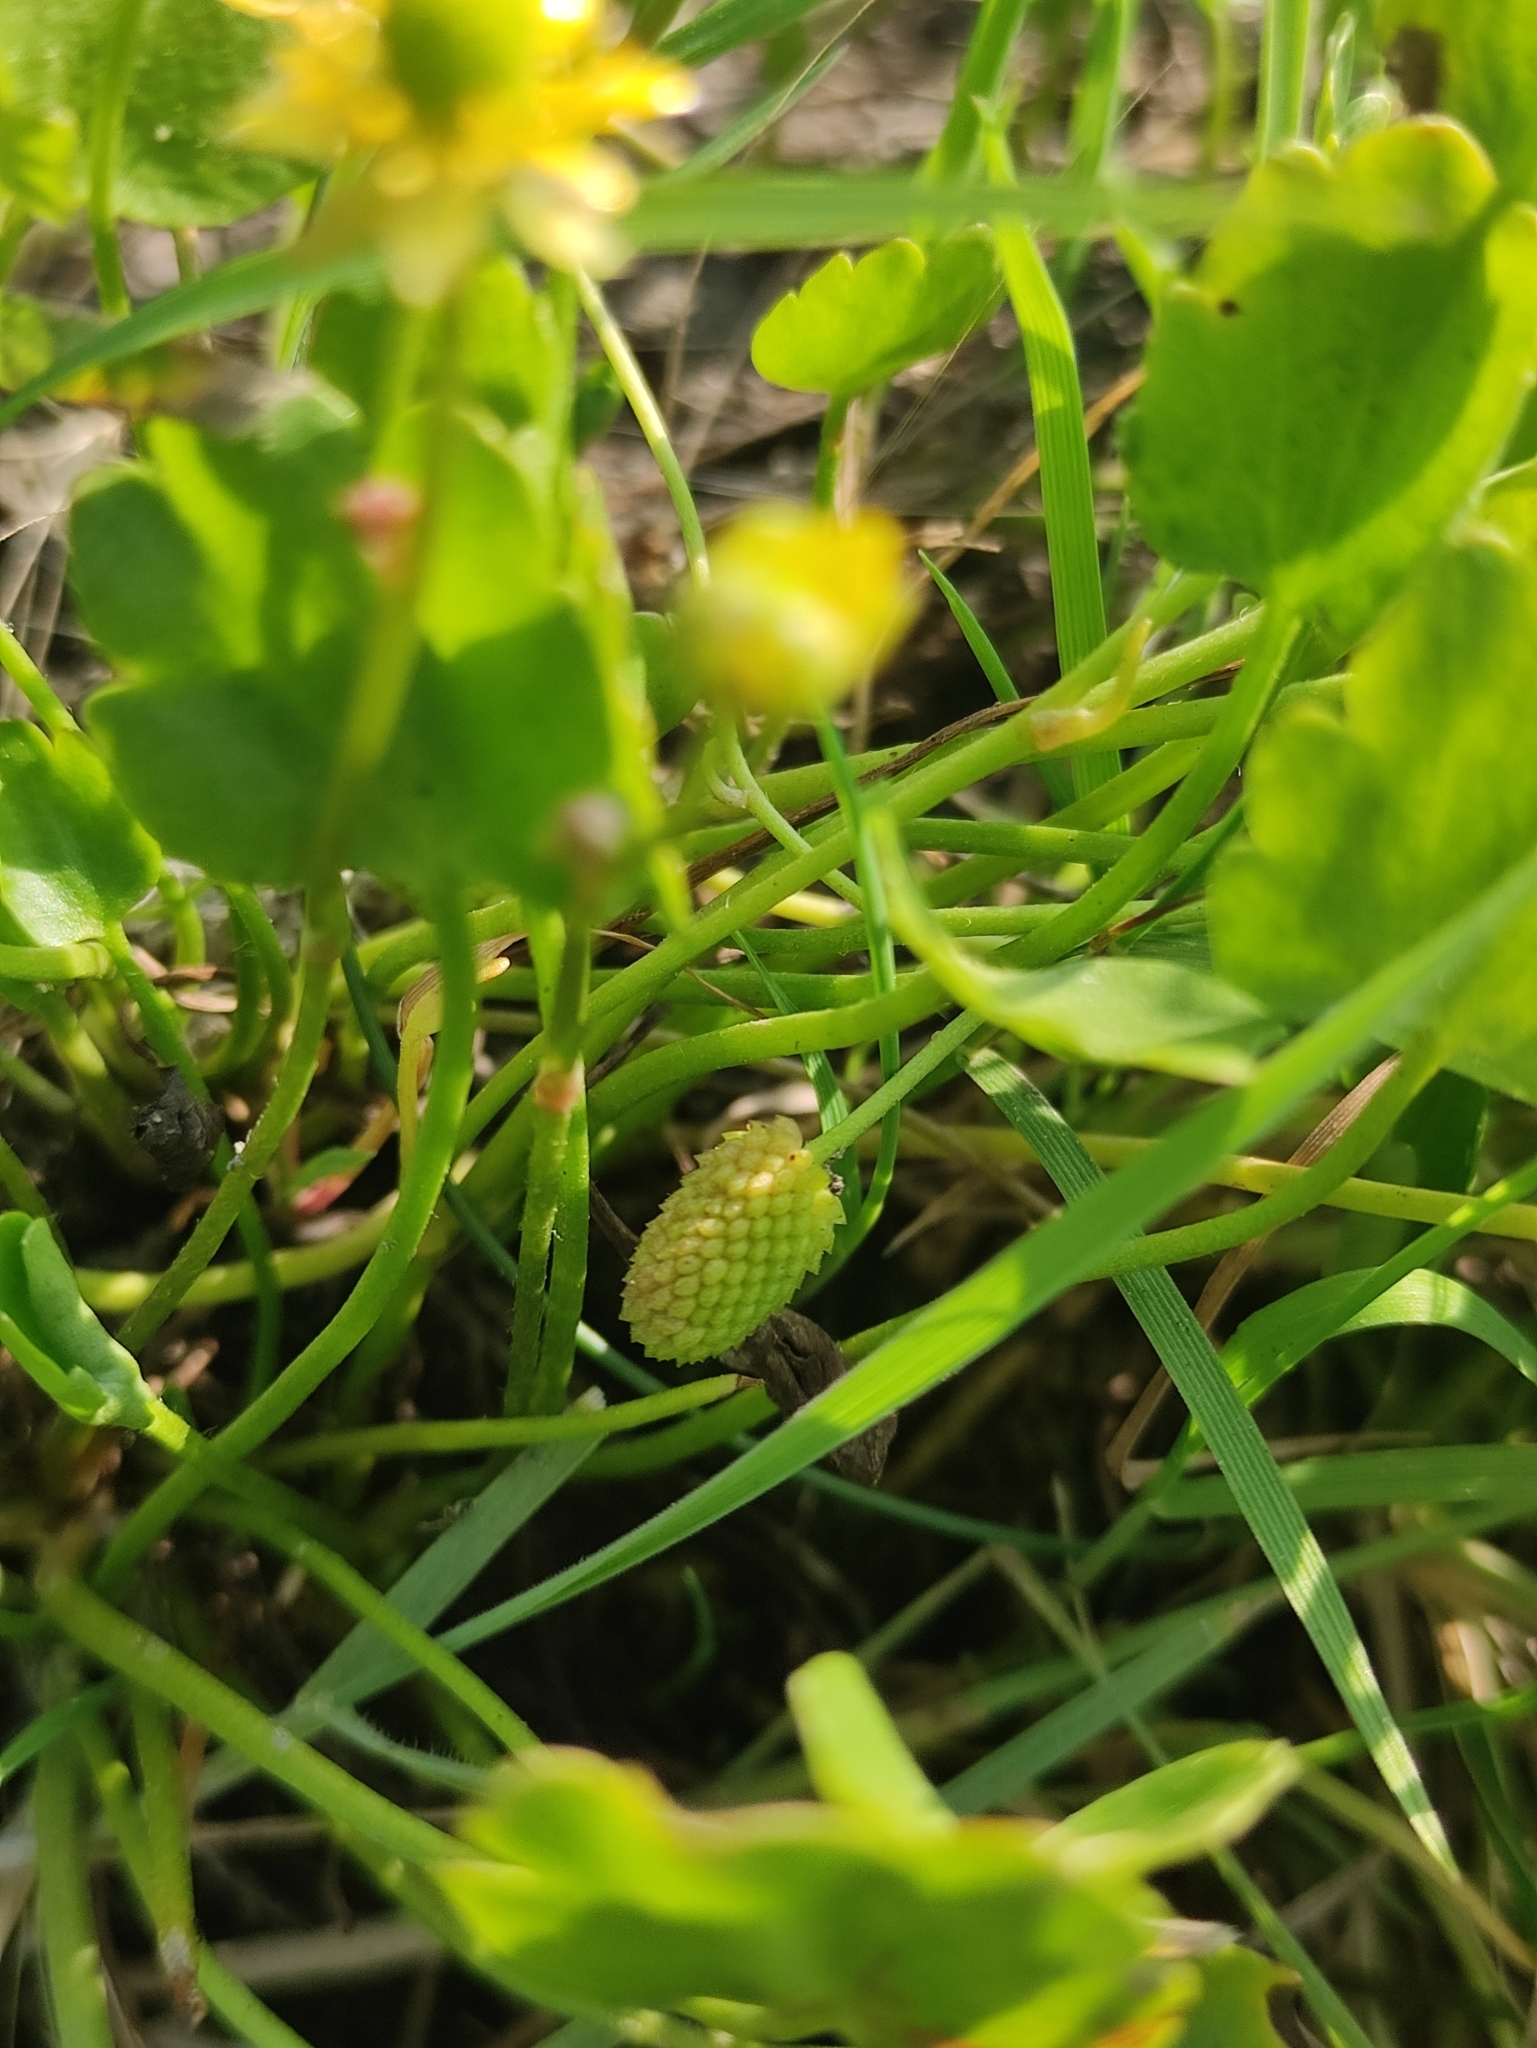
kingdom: Plantae
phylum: Tracheophyta
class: Magnoliopsida
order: Ranunculales
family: Ranunculaceae
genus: Halerpestes
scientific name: Halerpestes sarmentosus
